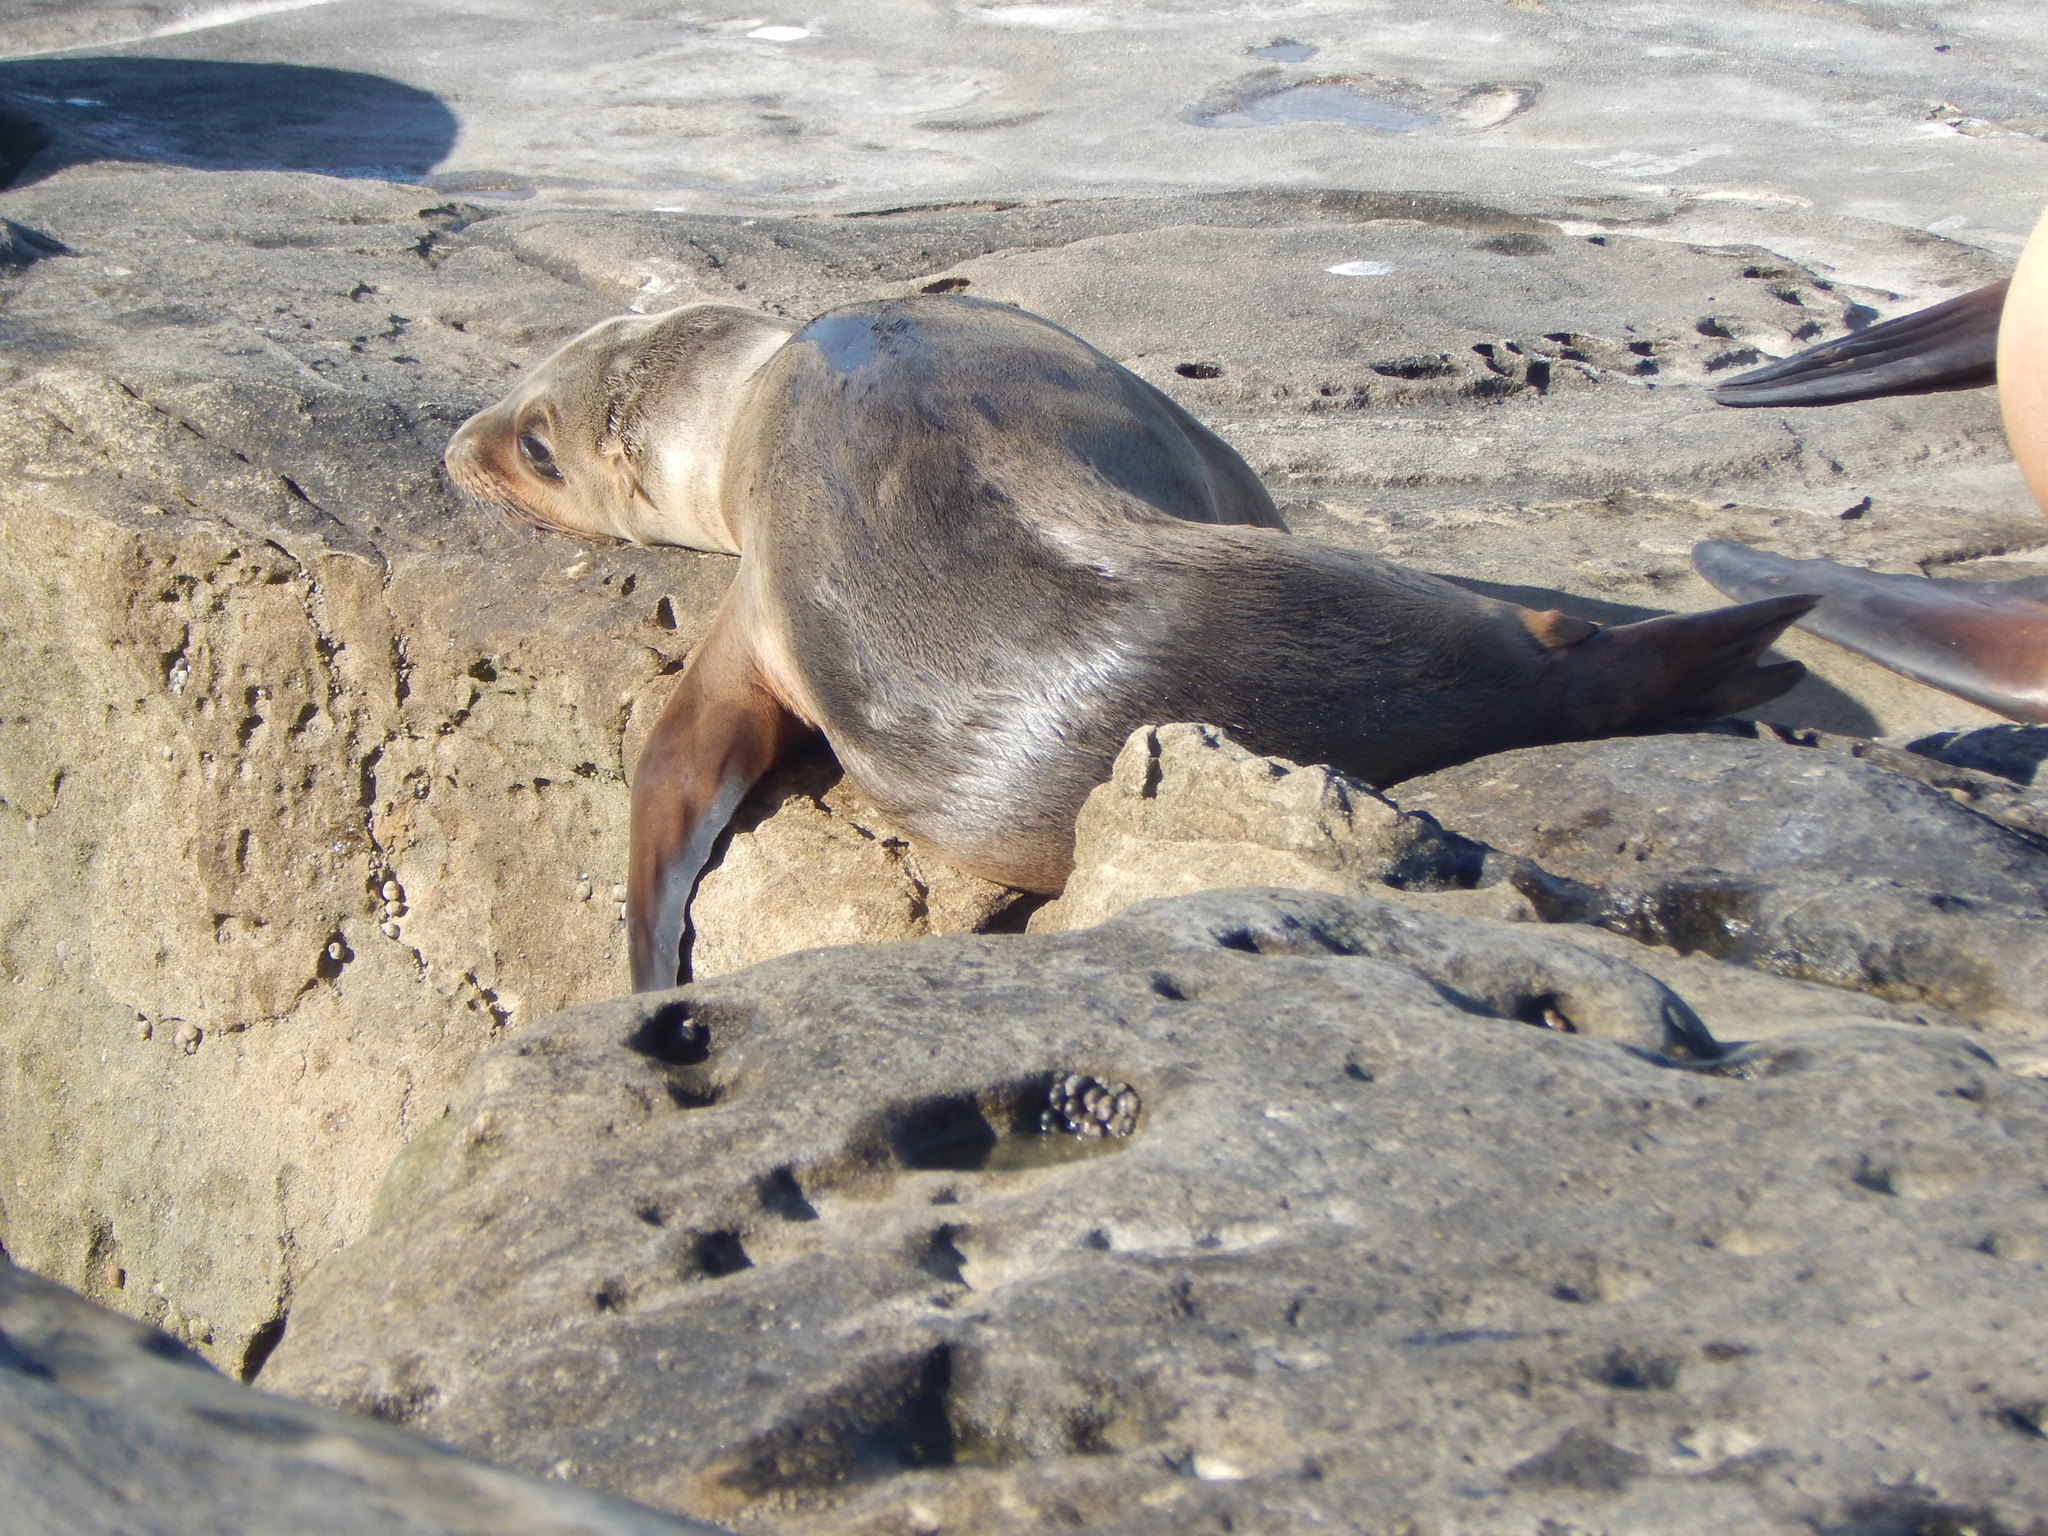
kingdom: Animalia
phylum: Chordata
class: Mammalia
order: Carnivora
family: Otariidae
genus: Zalophus
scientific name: Zalophus californianus
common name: California sea lion
